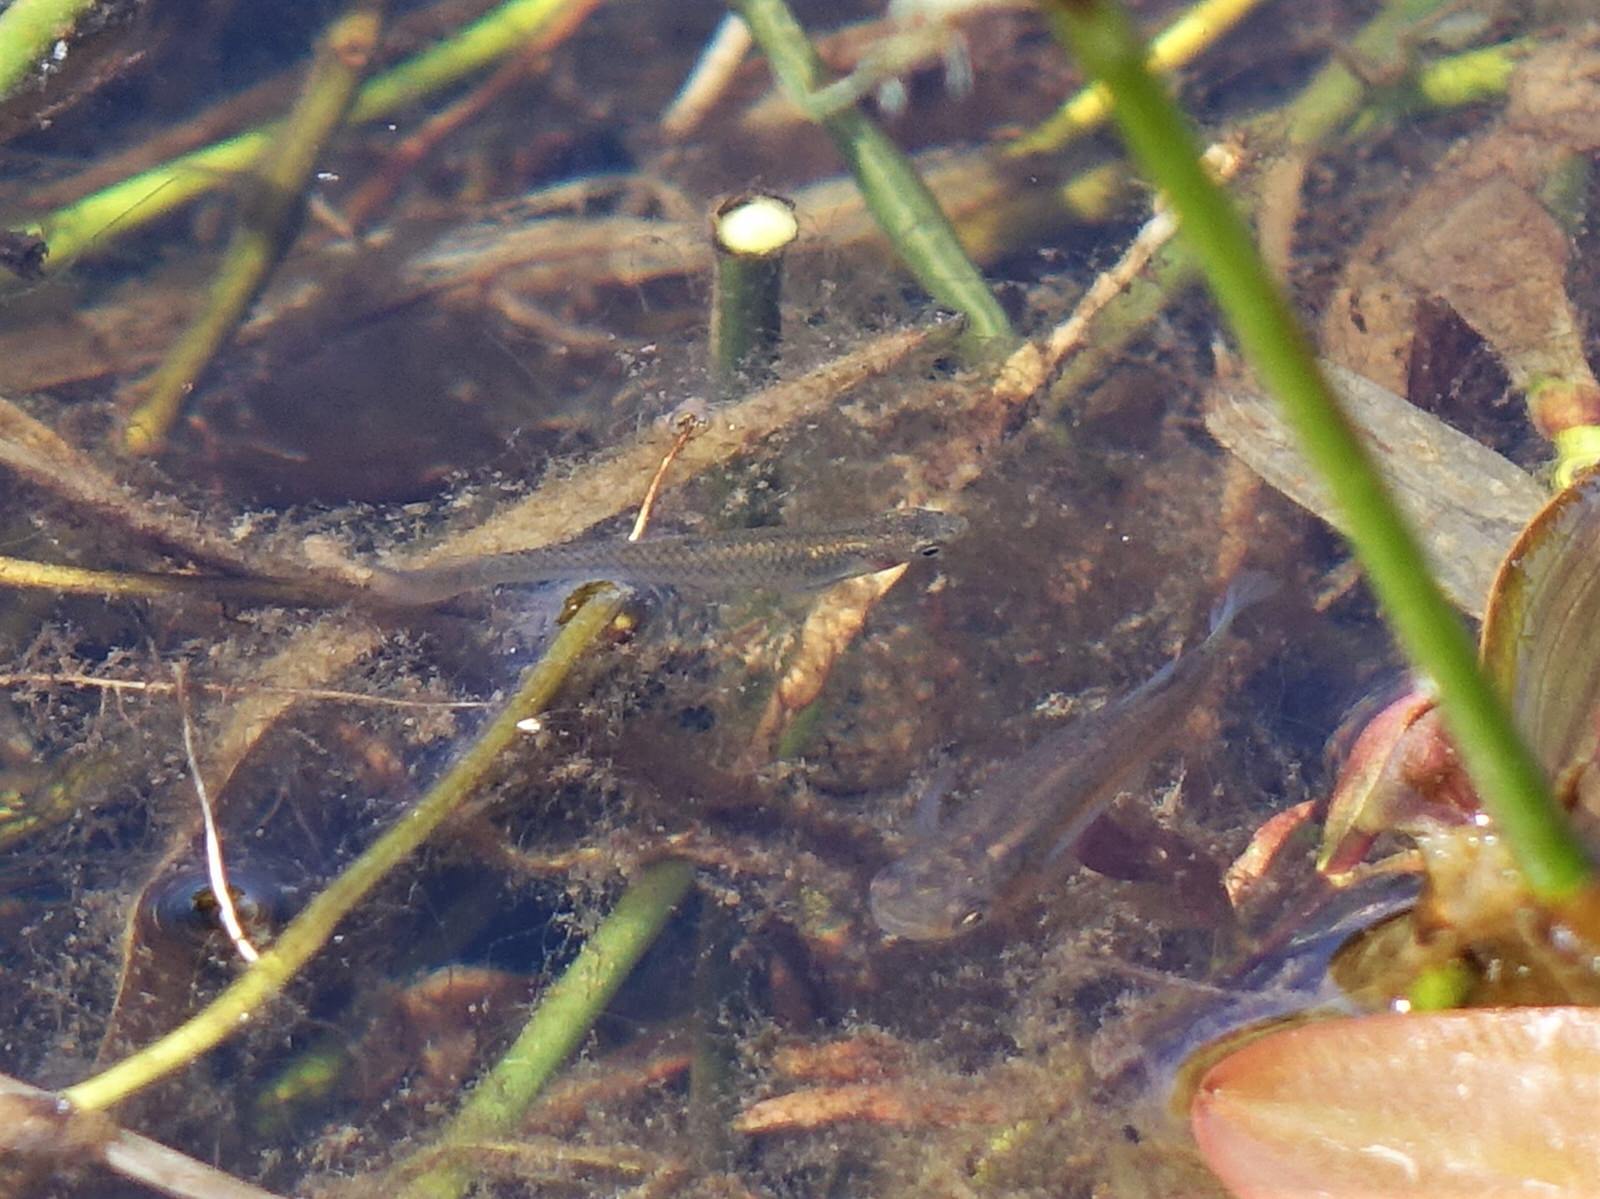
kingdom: Animalia
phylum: Chordata
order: Cyprinodontiformes
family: Poeciliidae
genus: Gambusia
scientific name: Gambusia affinis
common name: Mosquitofish
